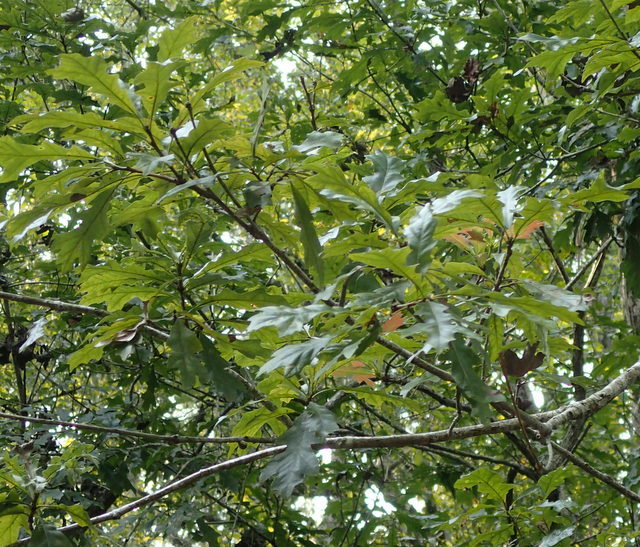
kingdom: Plantae
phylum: Tracheophyta
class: Magnoliopsida
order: Fagales
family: Fagaceae
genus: Quercus
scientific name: Quercus lyrata
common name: Overcup oak
